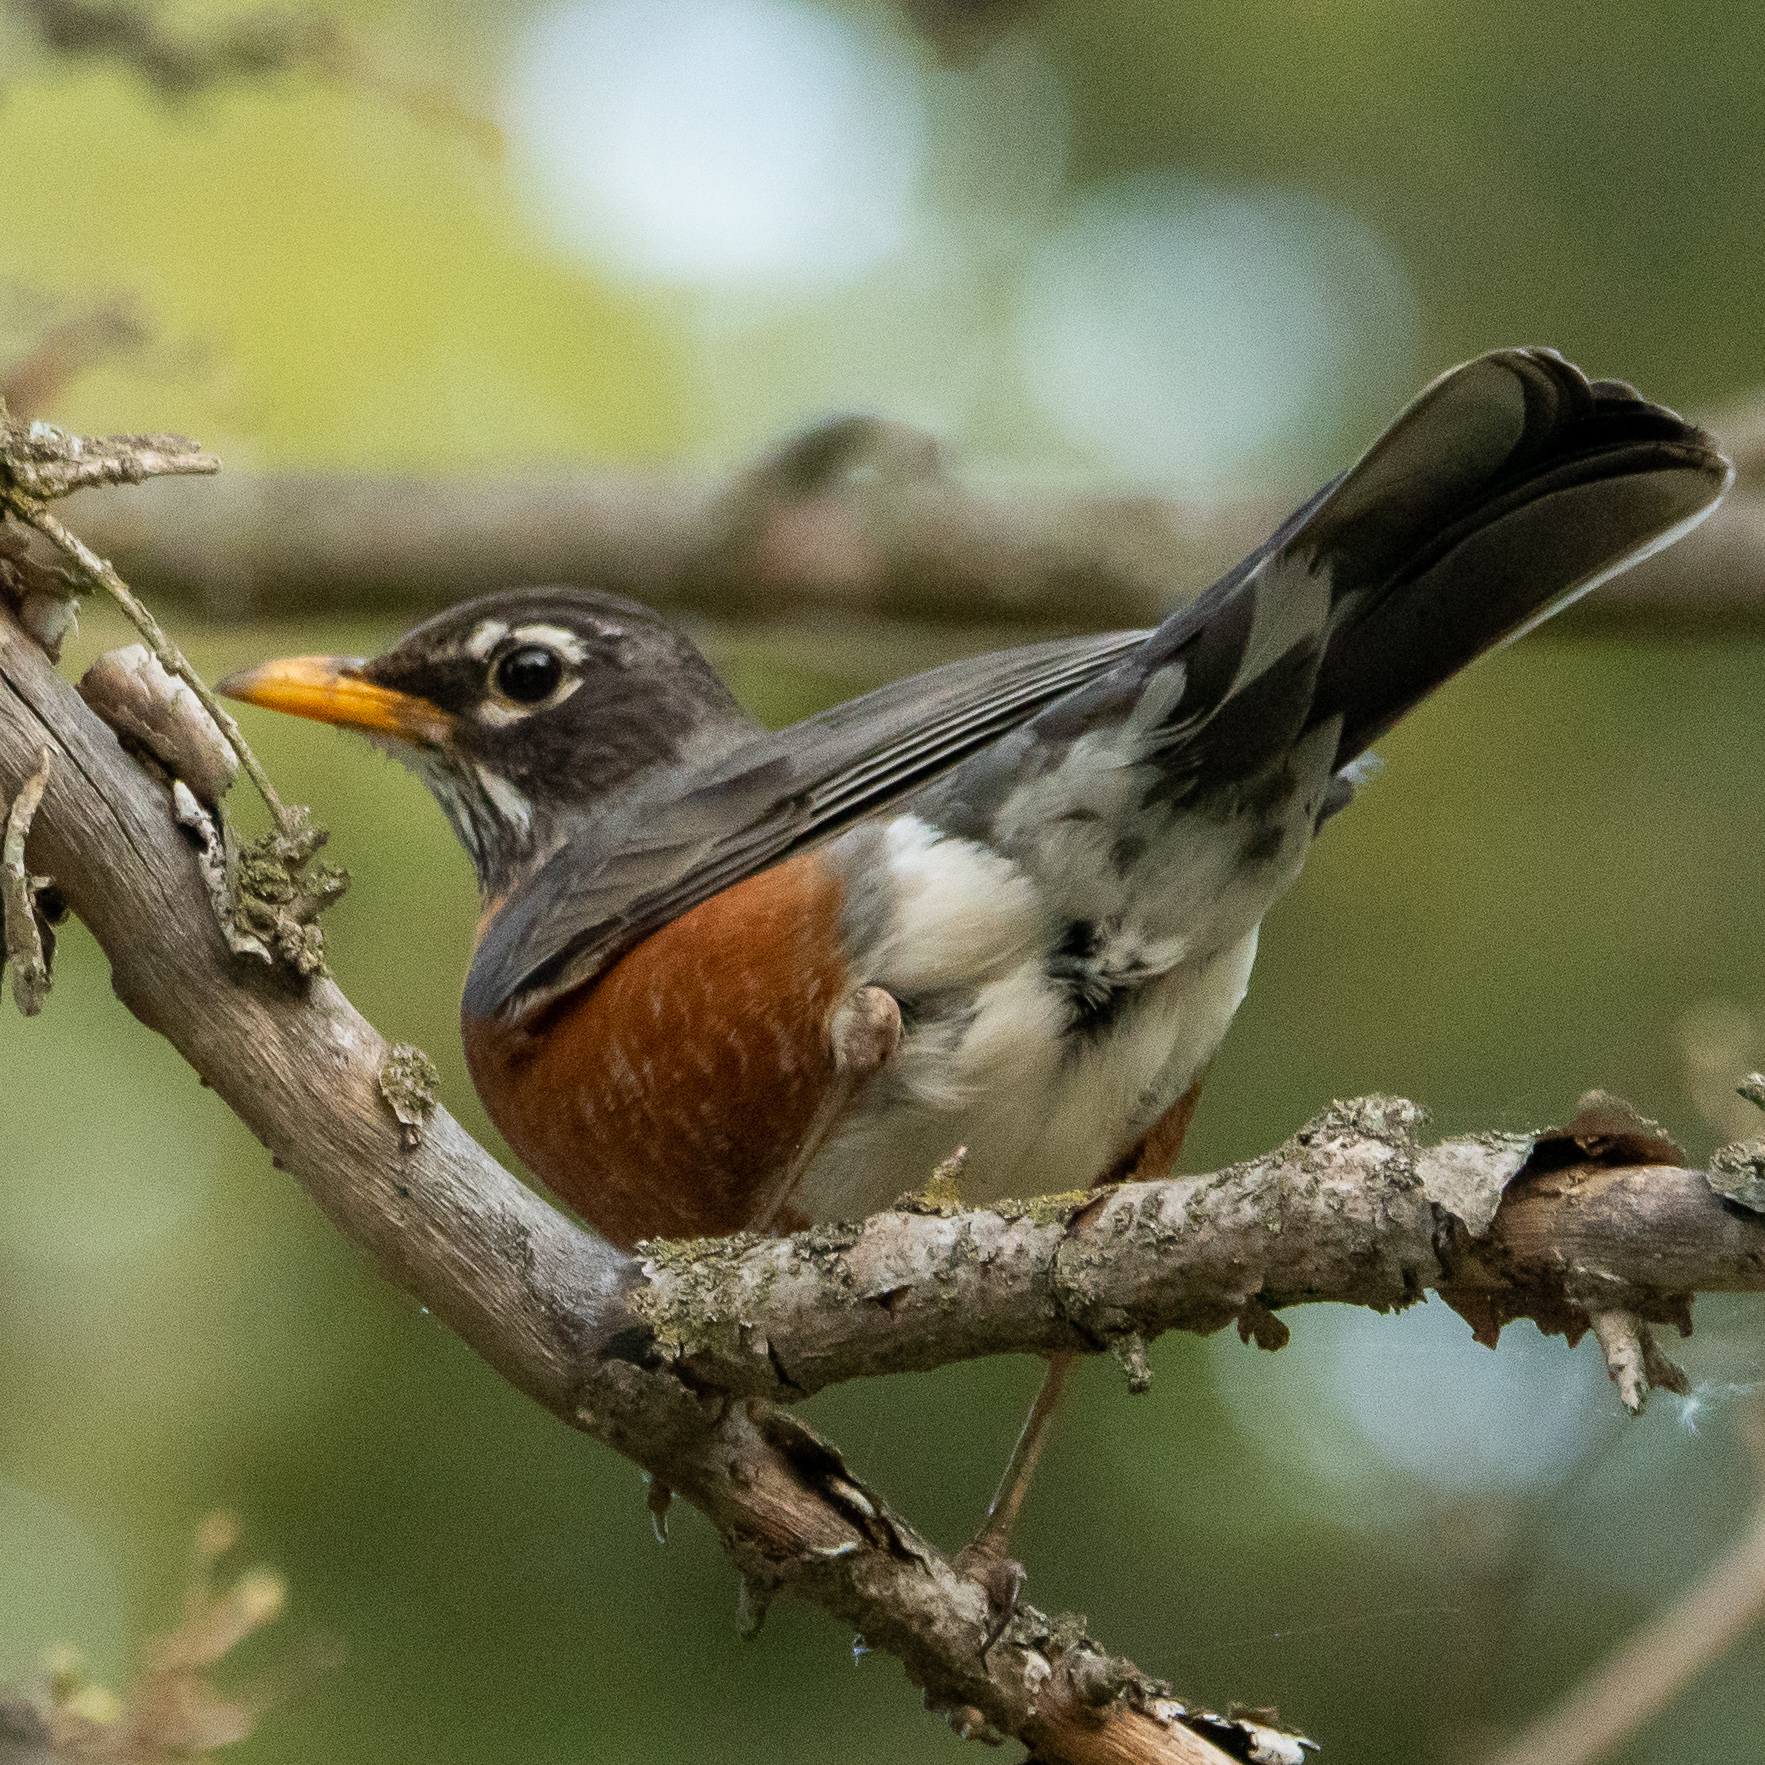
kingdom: Animalia
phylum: Chordata
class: Aves
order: Passeriformes
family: Turdidae
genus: Turdus
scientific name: Turdus migratorius
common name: American robin
